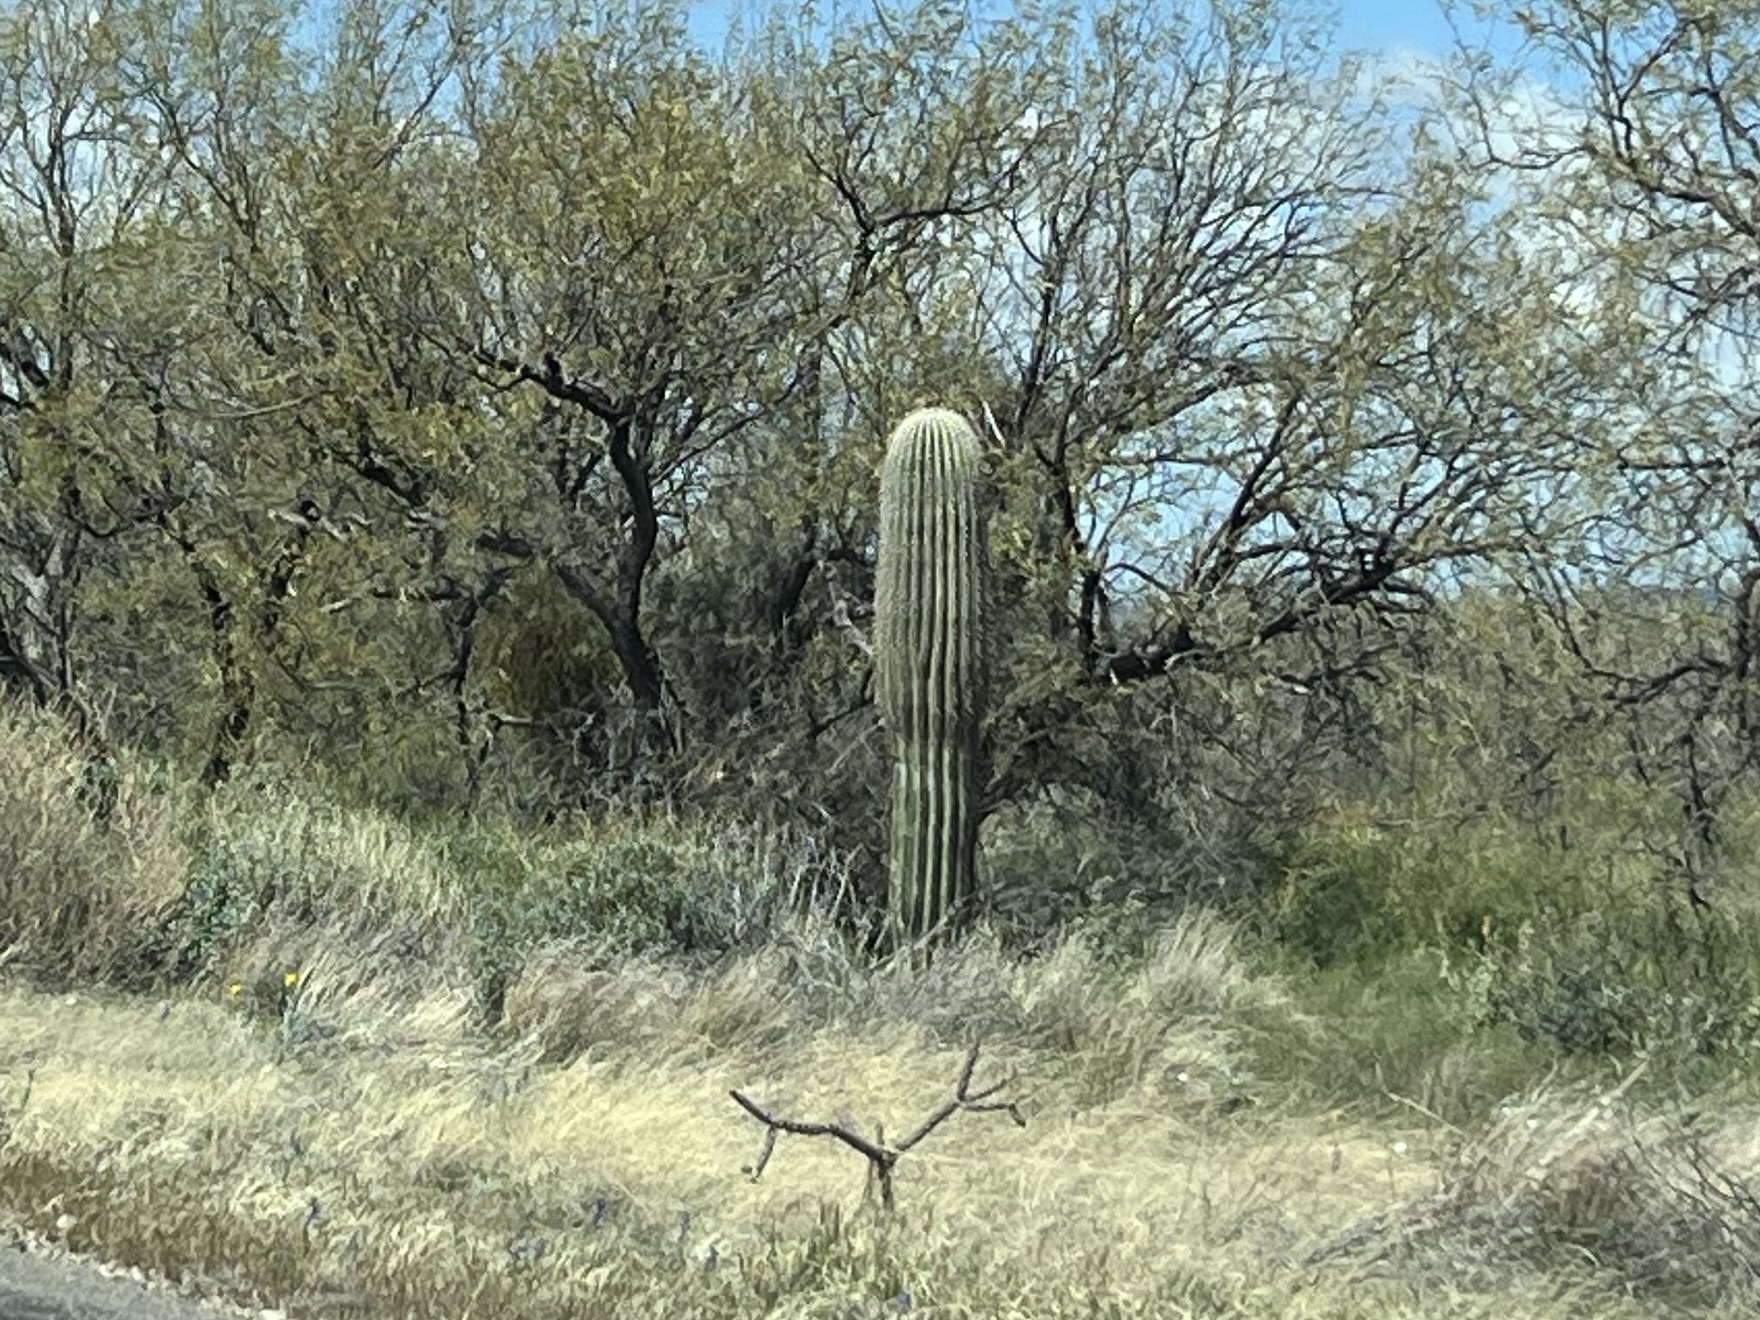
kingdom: Plantae
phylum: Tracheophyta
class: Magnoliopsida
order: Caryophyllales
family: Cactaceae
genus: Carnegiea
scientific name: Carnegiea gigantea
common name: Saguaro
